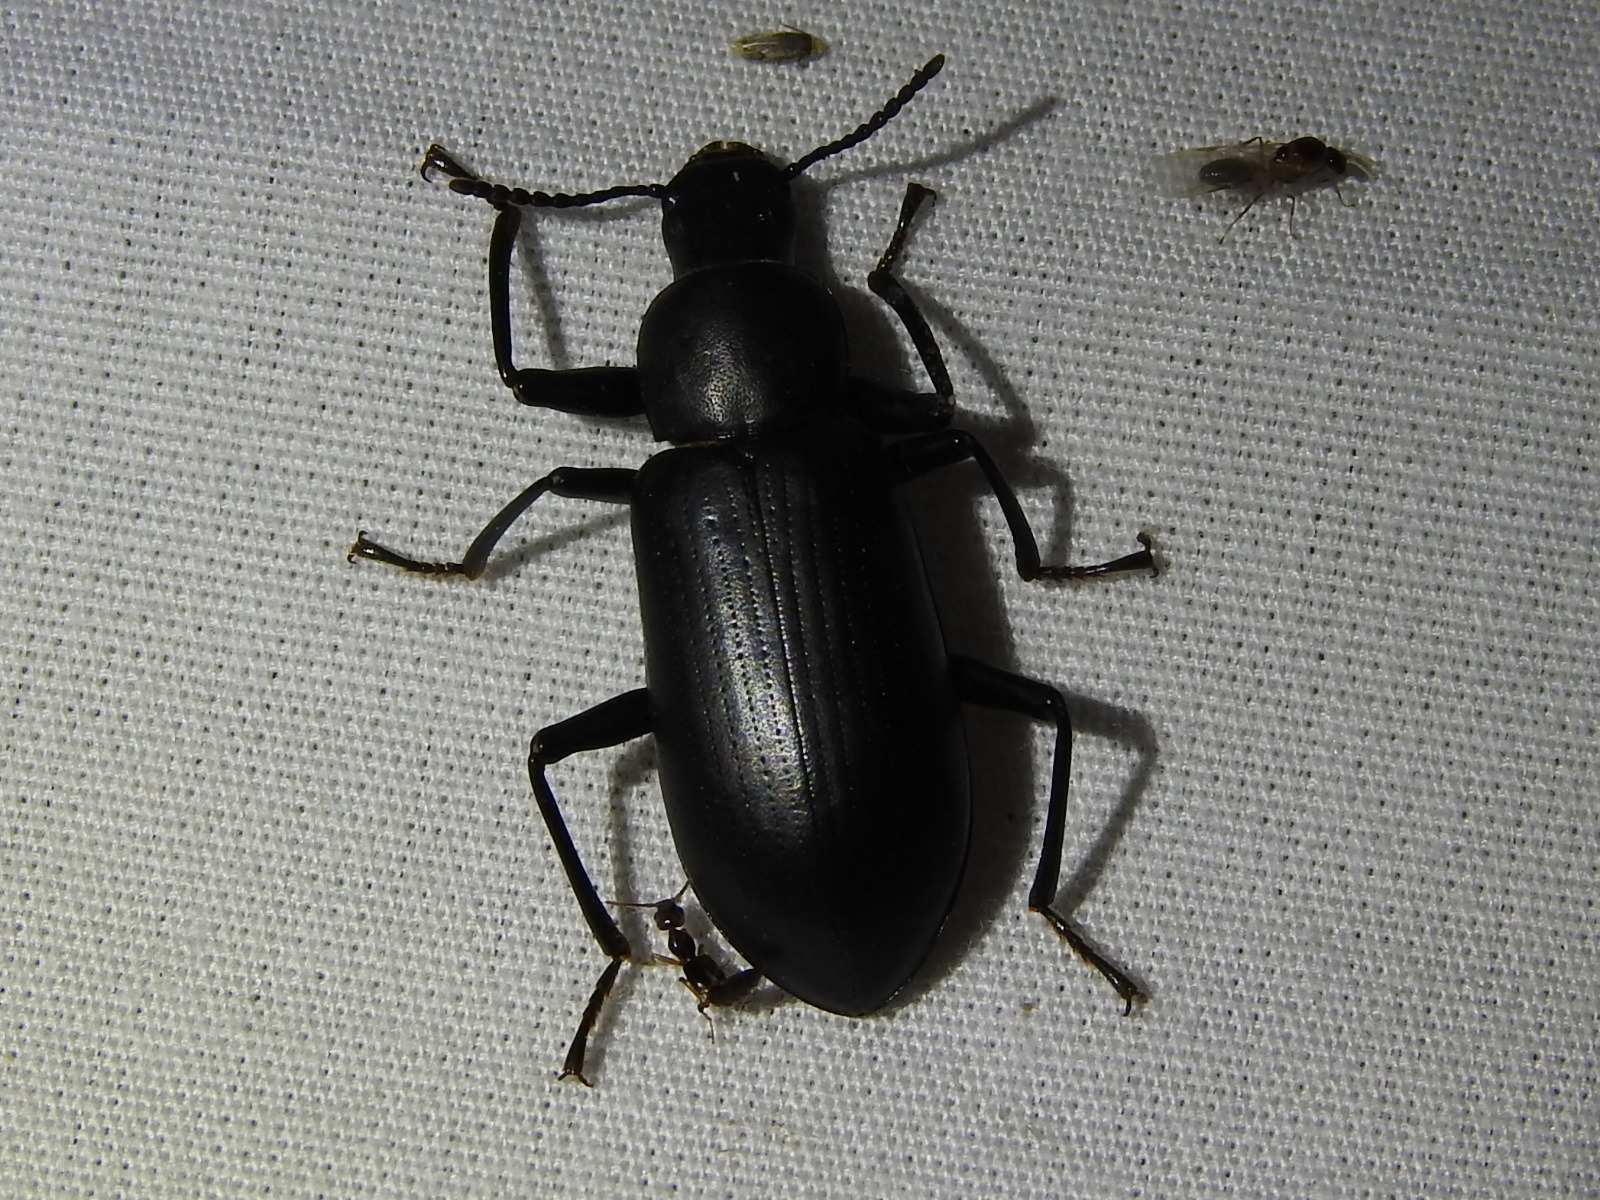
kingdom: Animalia
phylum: Arthropoda
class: Insecta
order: Coleoptera
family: Tenebrionidae
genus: Alobates
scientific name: Alobates
